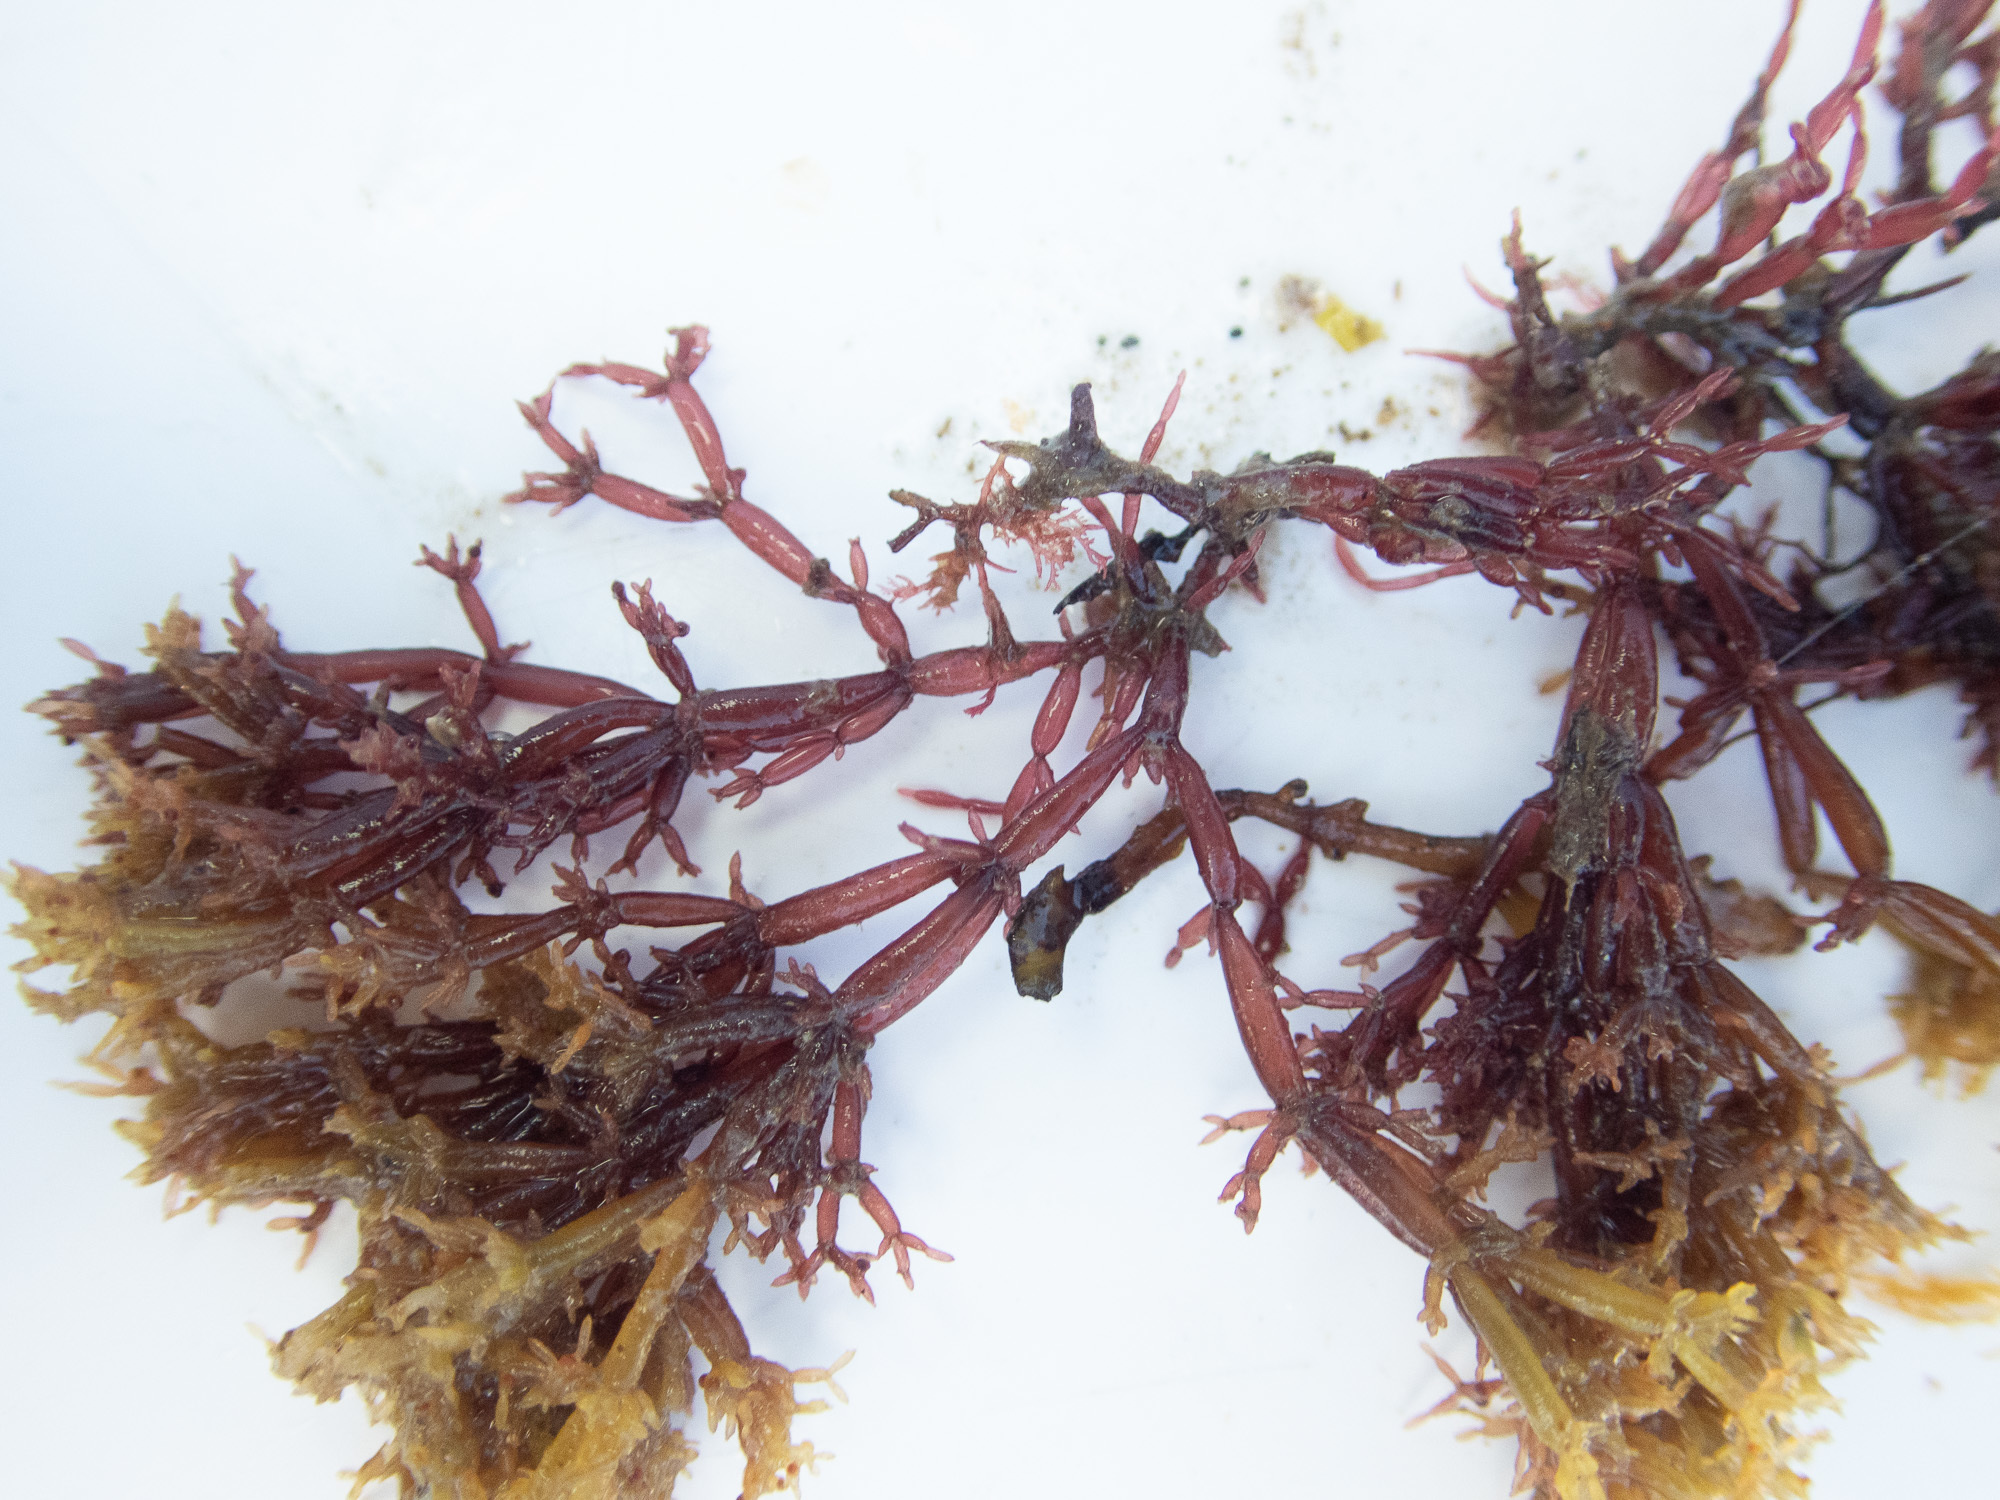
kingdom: Plantae
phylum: Rhodophyta
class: Florideophyceae
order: Rhodymeniales
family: Lomentariaceae
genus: Lomentaria
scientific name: Lomentaria articulata
